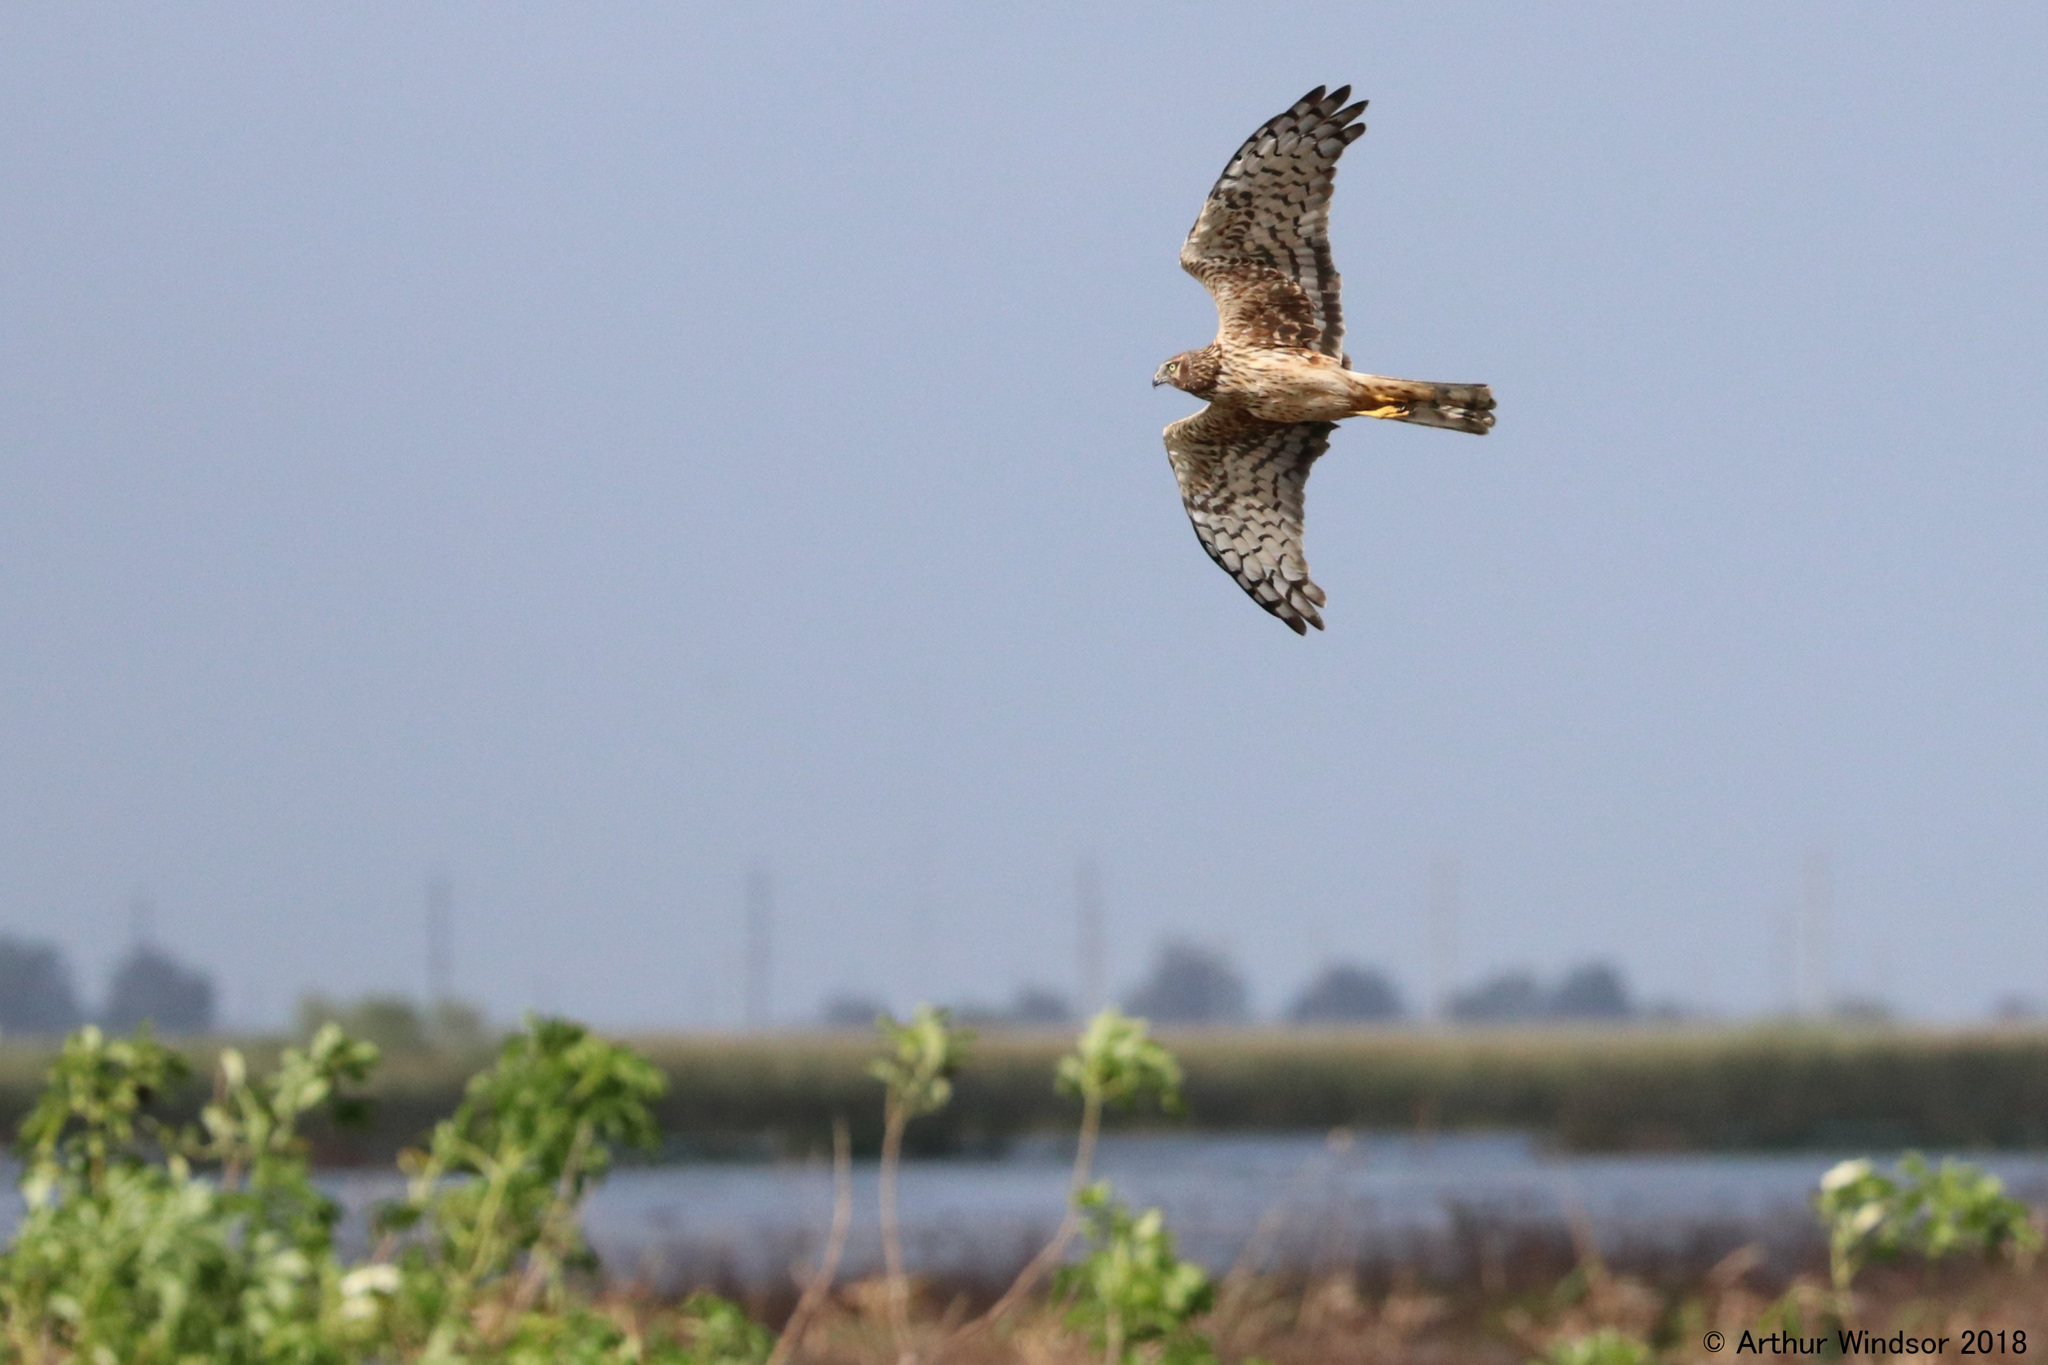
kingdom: Animalia
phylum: Chordata
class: Aves
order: Accipitriformes
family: Accipitridae
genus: Circus
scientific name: Circus cyaneus
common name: Hen harrier
